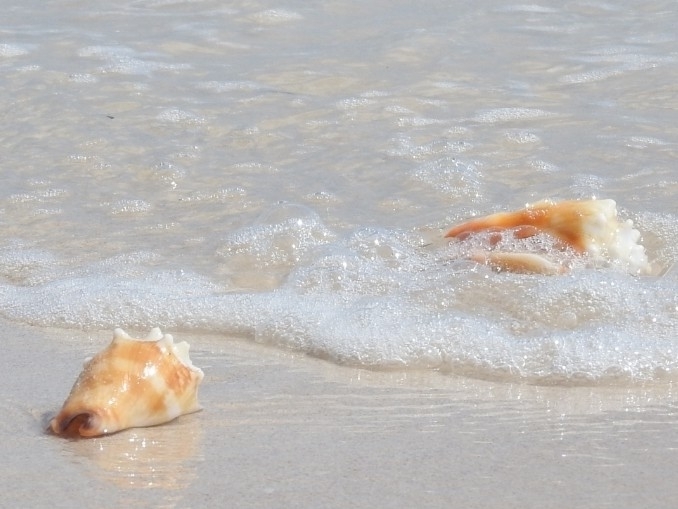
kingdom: Animalia
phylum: Mollusca
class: Gastropoda
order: Littorinimorpha
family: Strombidae
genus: Strombus
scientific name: Strombus alatus
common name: Florida fighting conch
